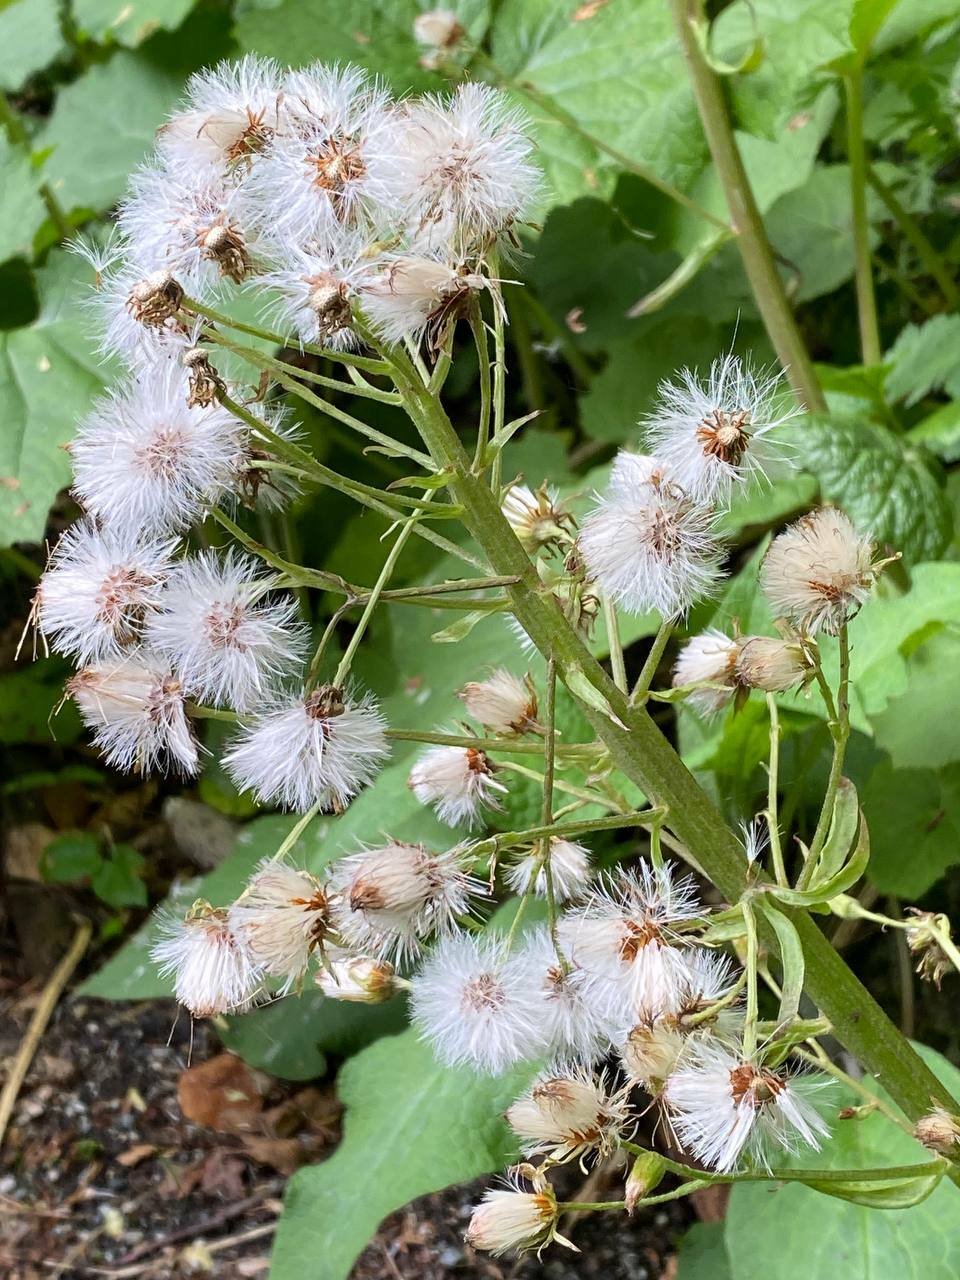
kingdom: Plantae
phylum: Tracheophyta
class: Magnoliopsida
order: Asterales
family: Asteraceae
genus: Petasites
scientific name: Petasites albus
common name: White butterbur
